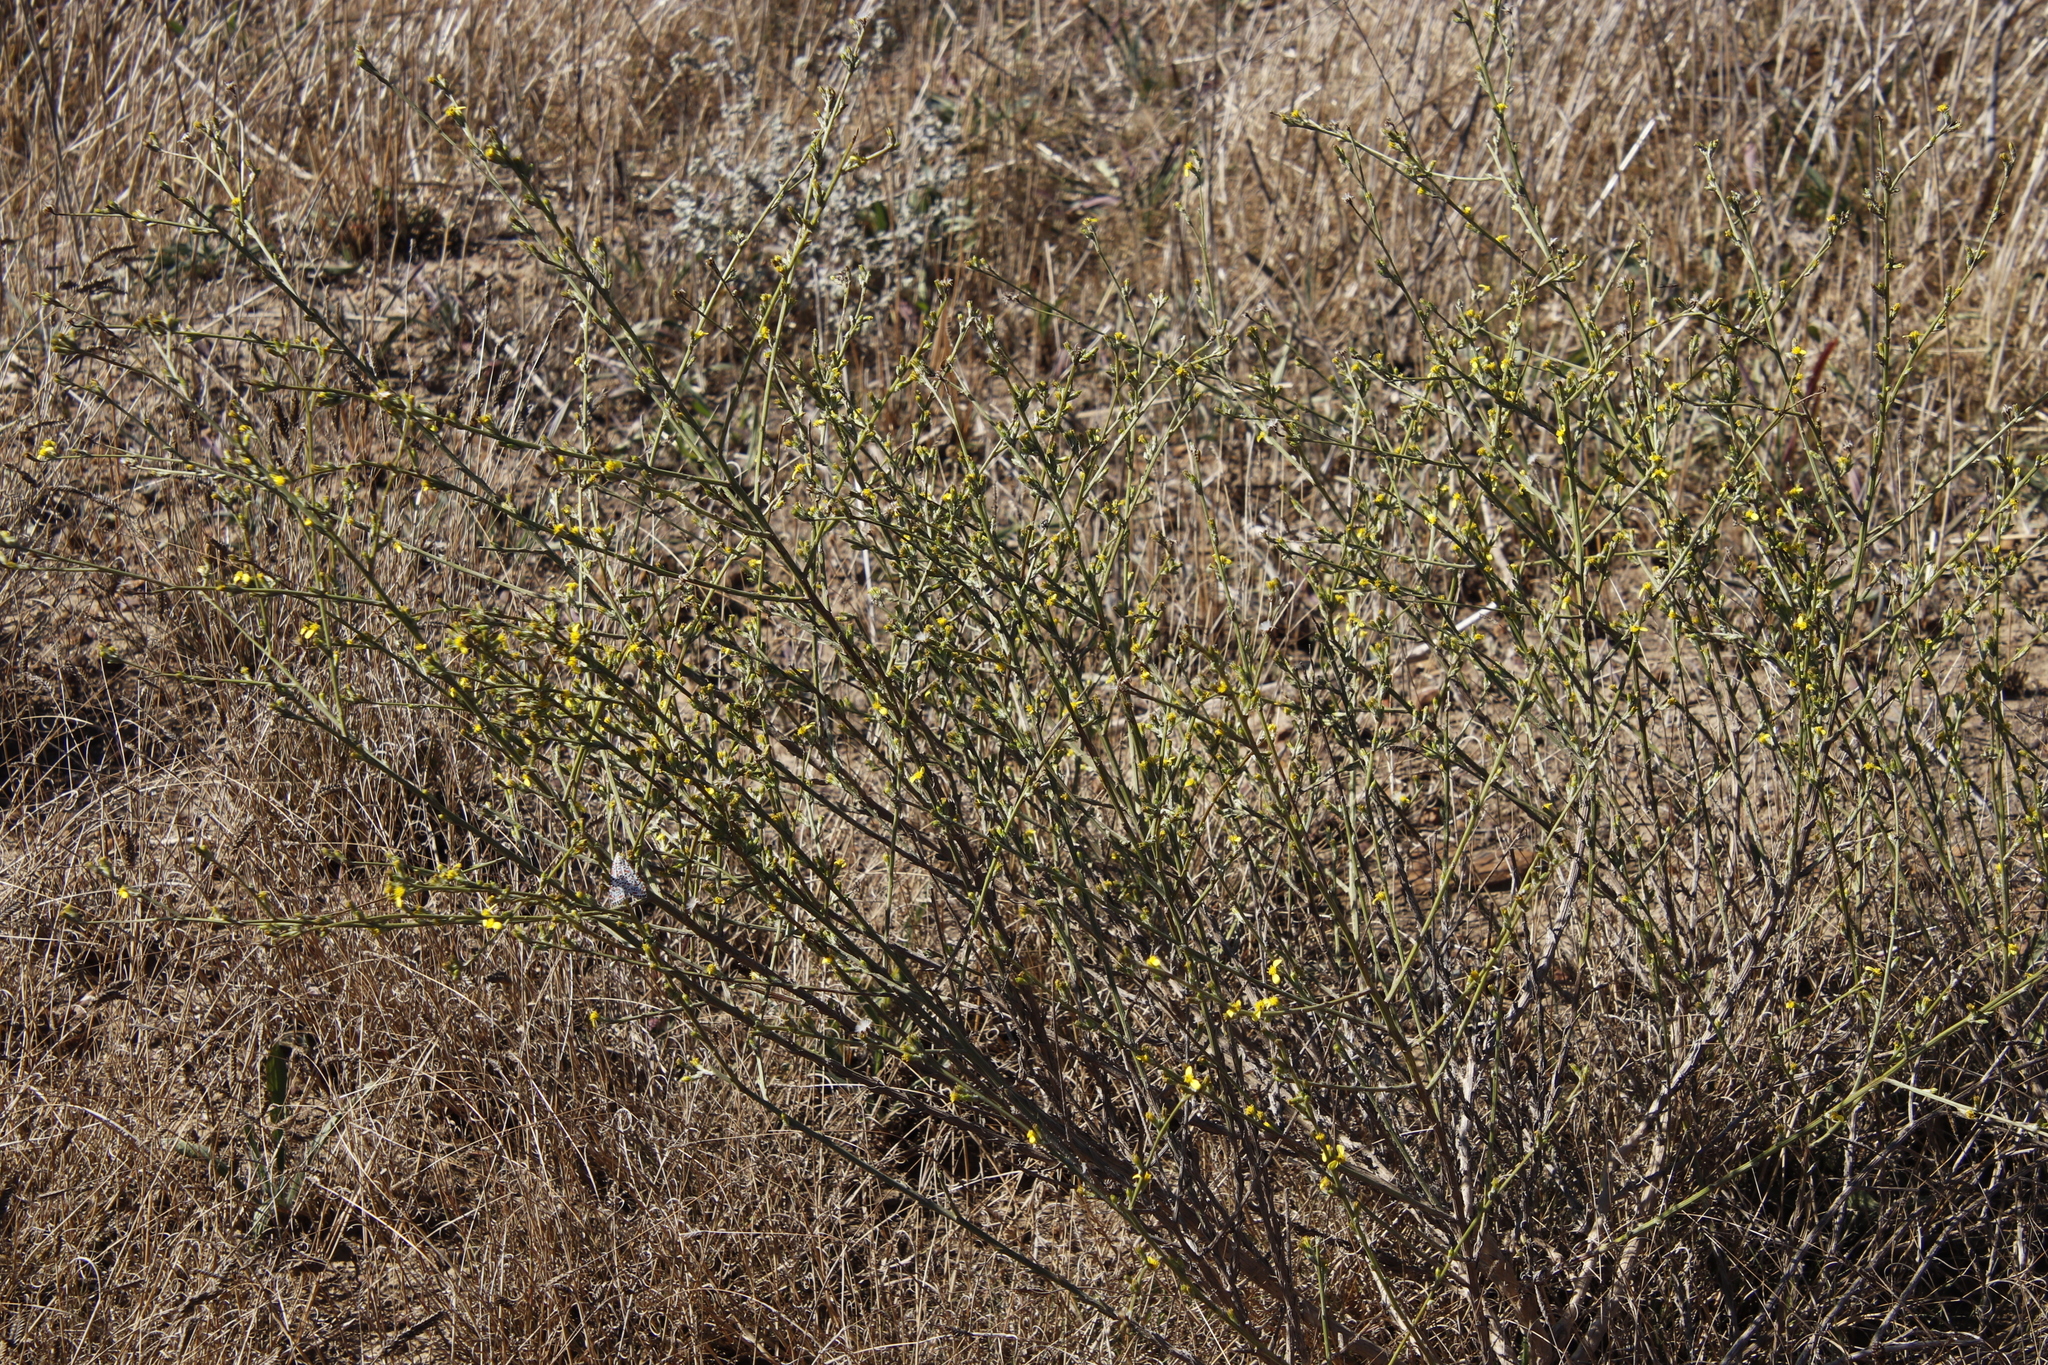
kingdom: Plantae
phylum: Tracheophyta
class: Magnoliopsida
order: Asterales
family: Asteraceae
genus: Senecio
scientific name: Senecio pubigerus
